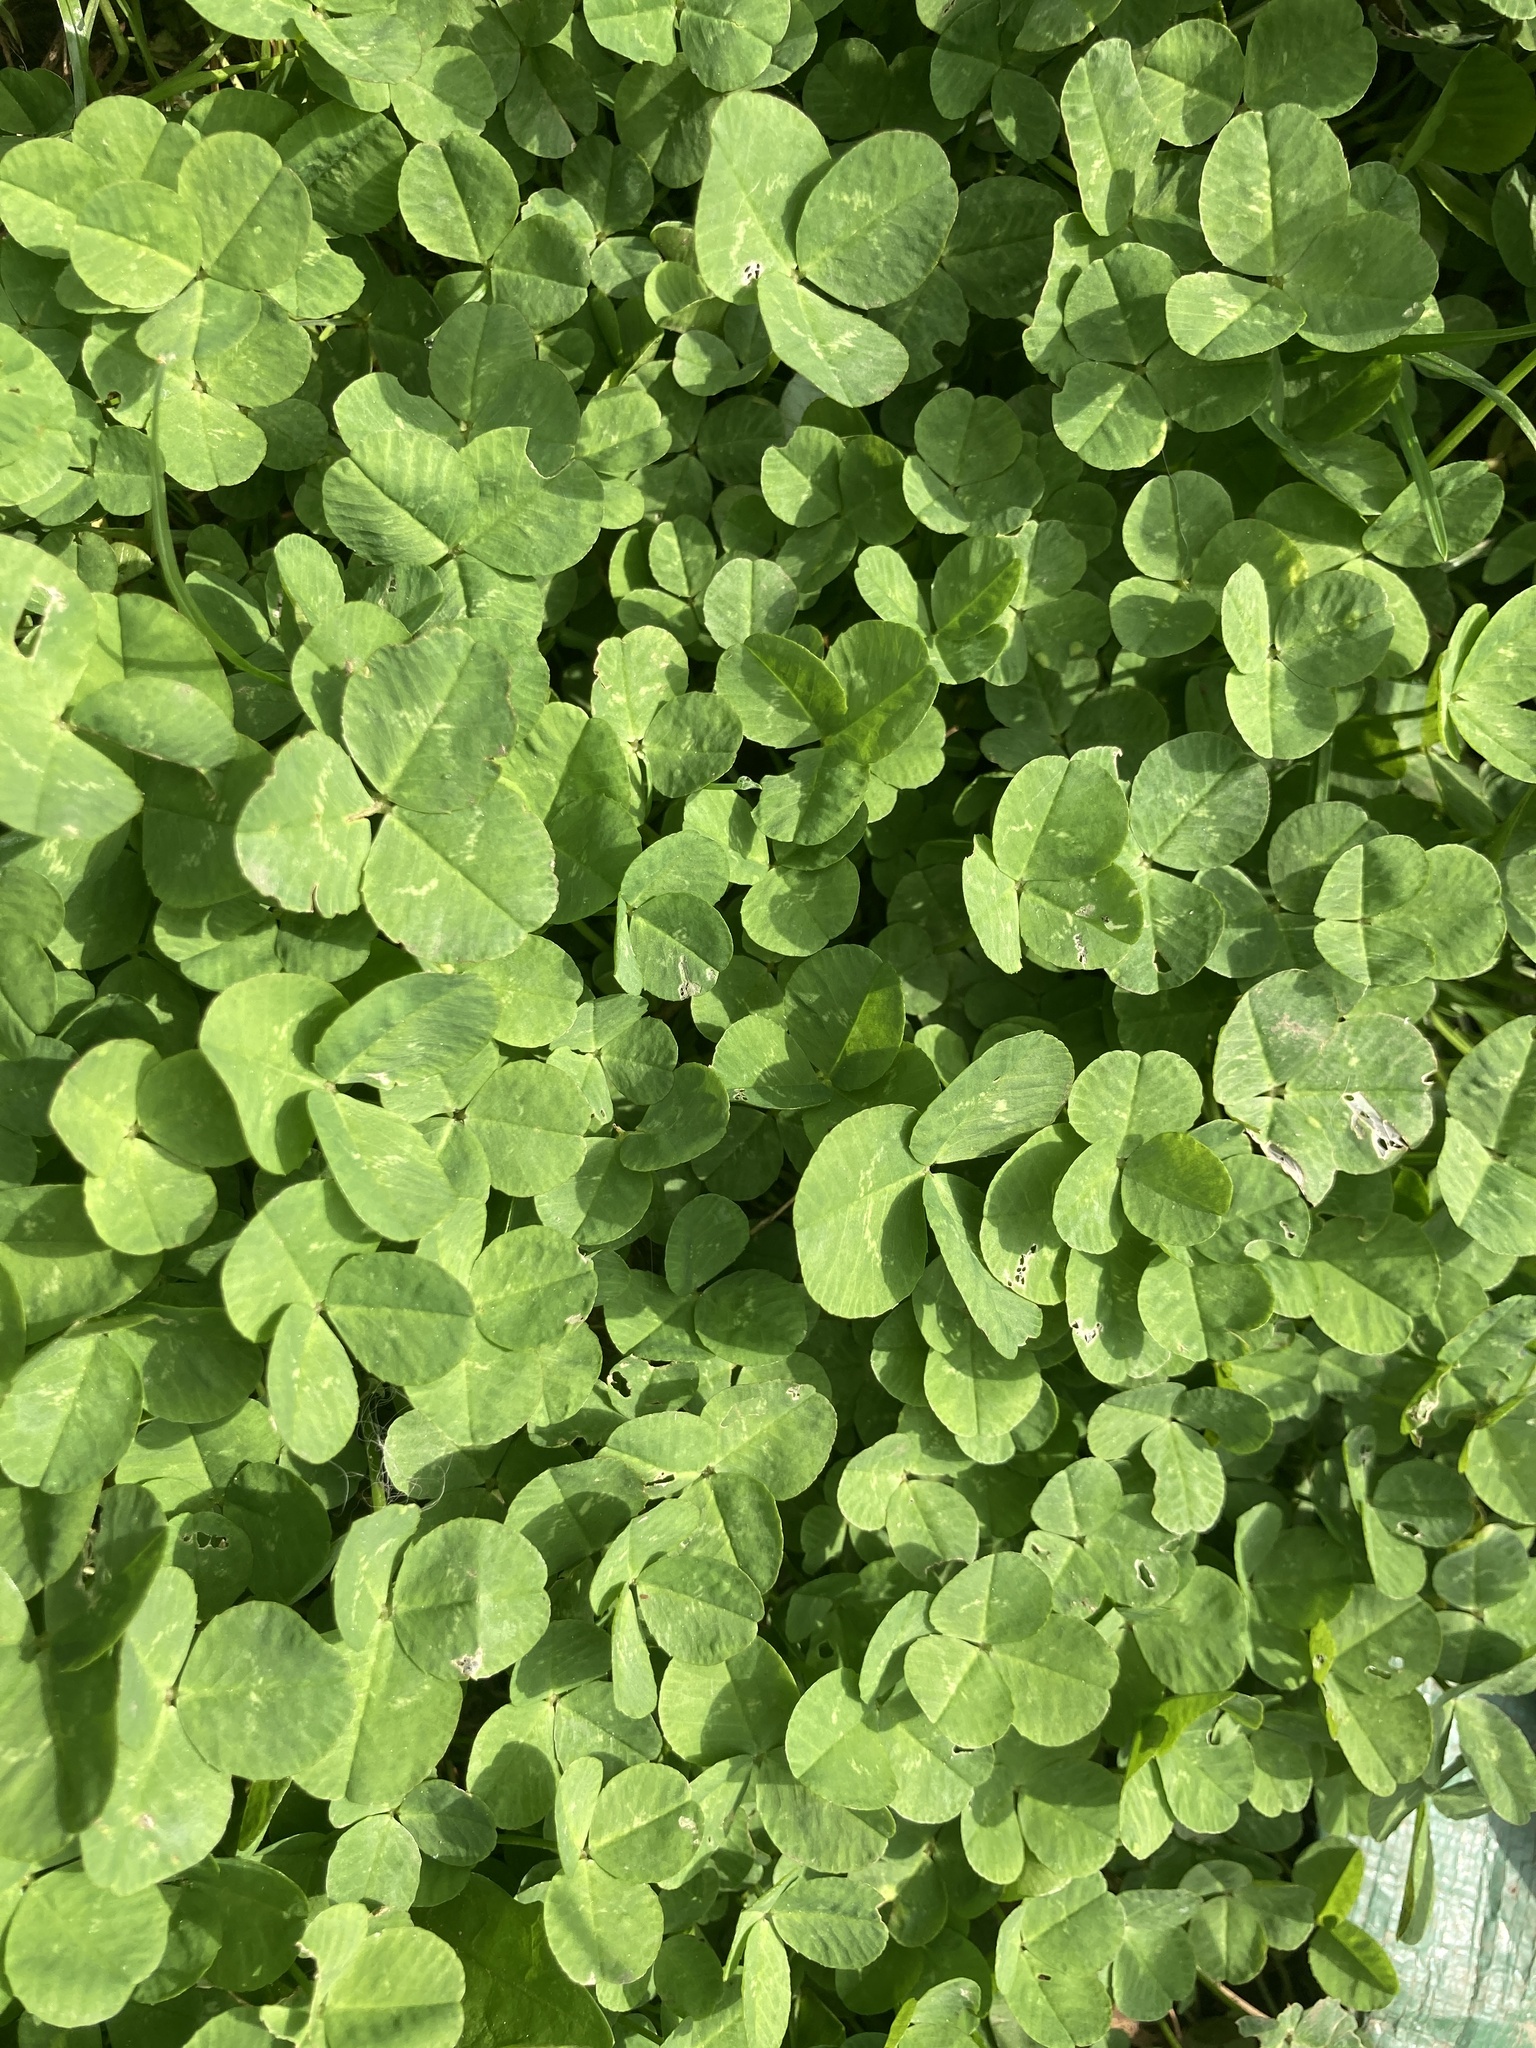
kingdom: Plantae
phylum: Tracheophyta
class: Magnoliopsida
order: Fabales
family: Fabaceae
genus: Trifolium
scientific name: Trifolium repens
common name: White clover
